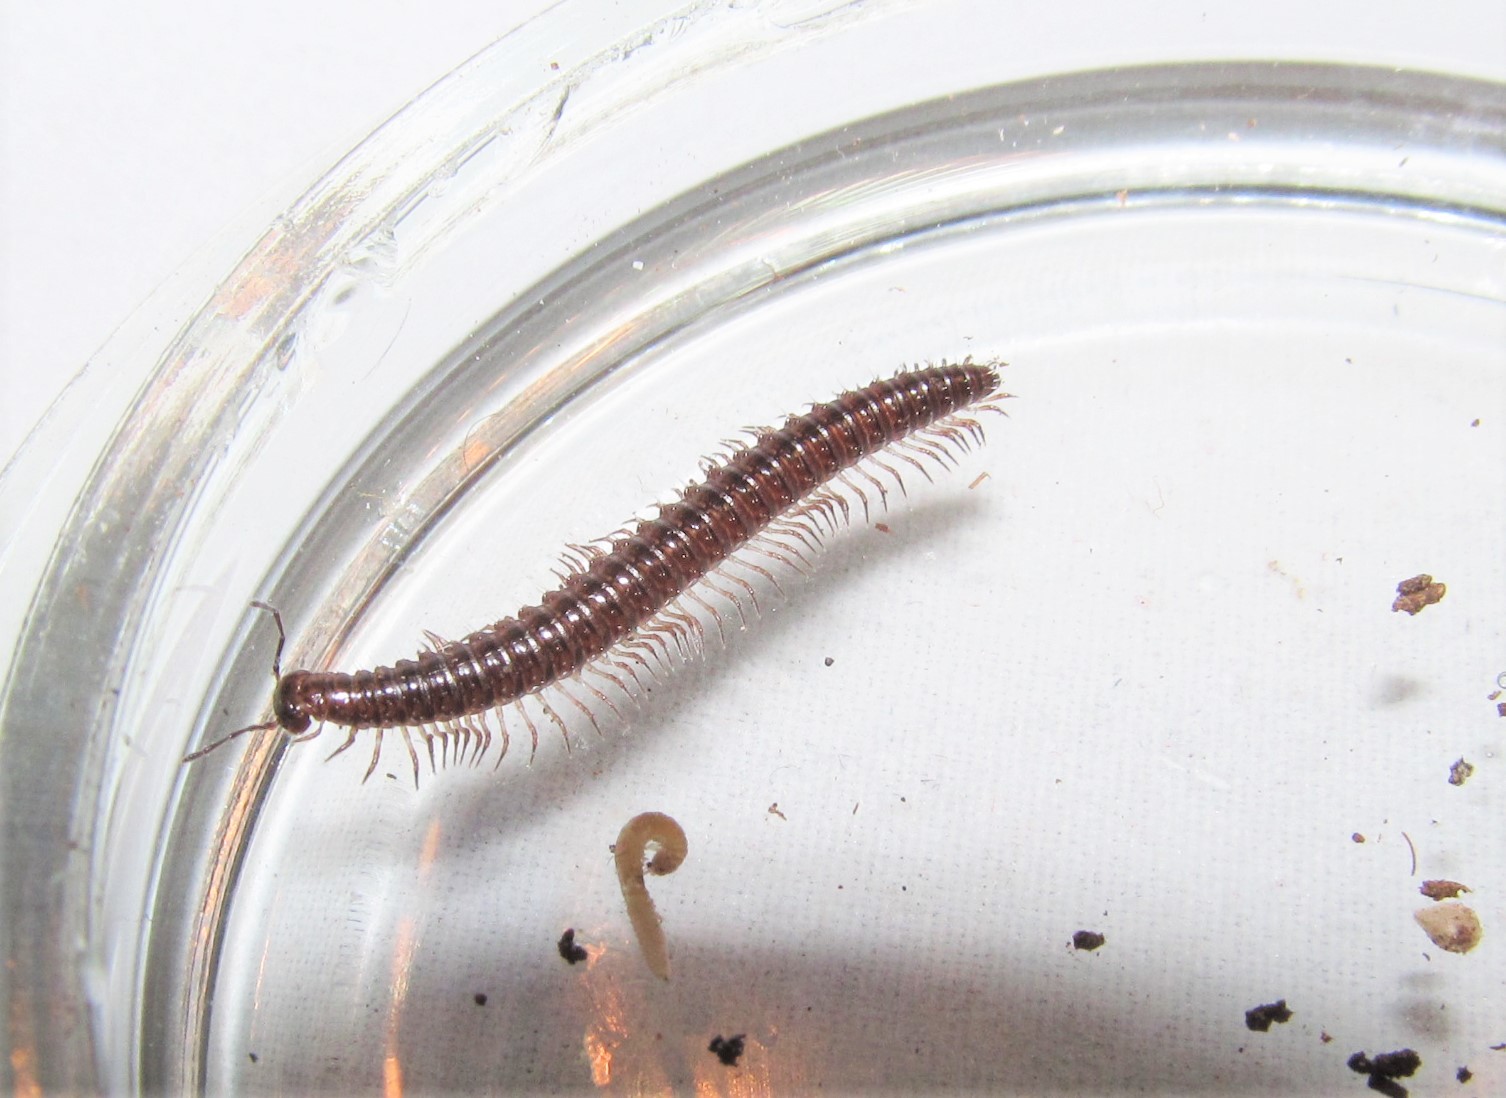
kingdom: Animalia
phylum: Arthropoda
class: Diplopoda
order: Chordeumatida
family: Conotylidae
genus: Conotyla
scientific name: Conotyla ocypetes
